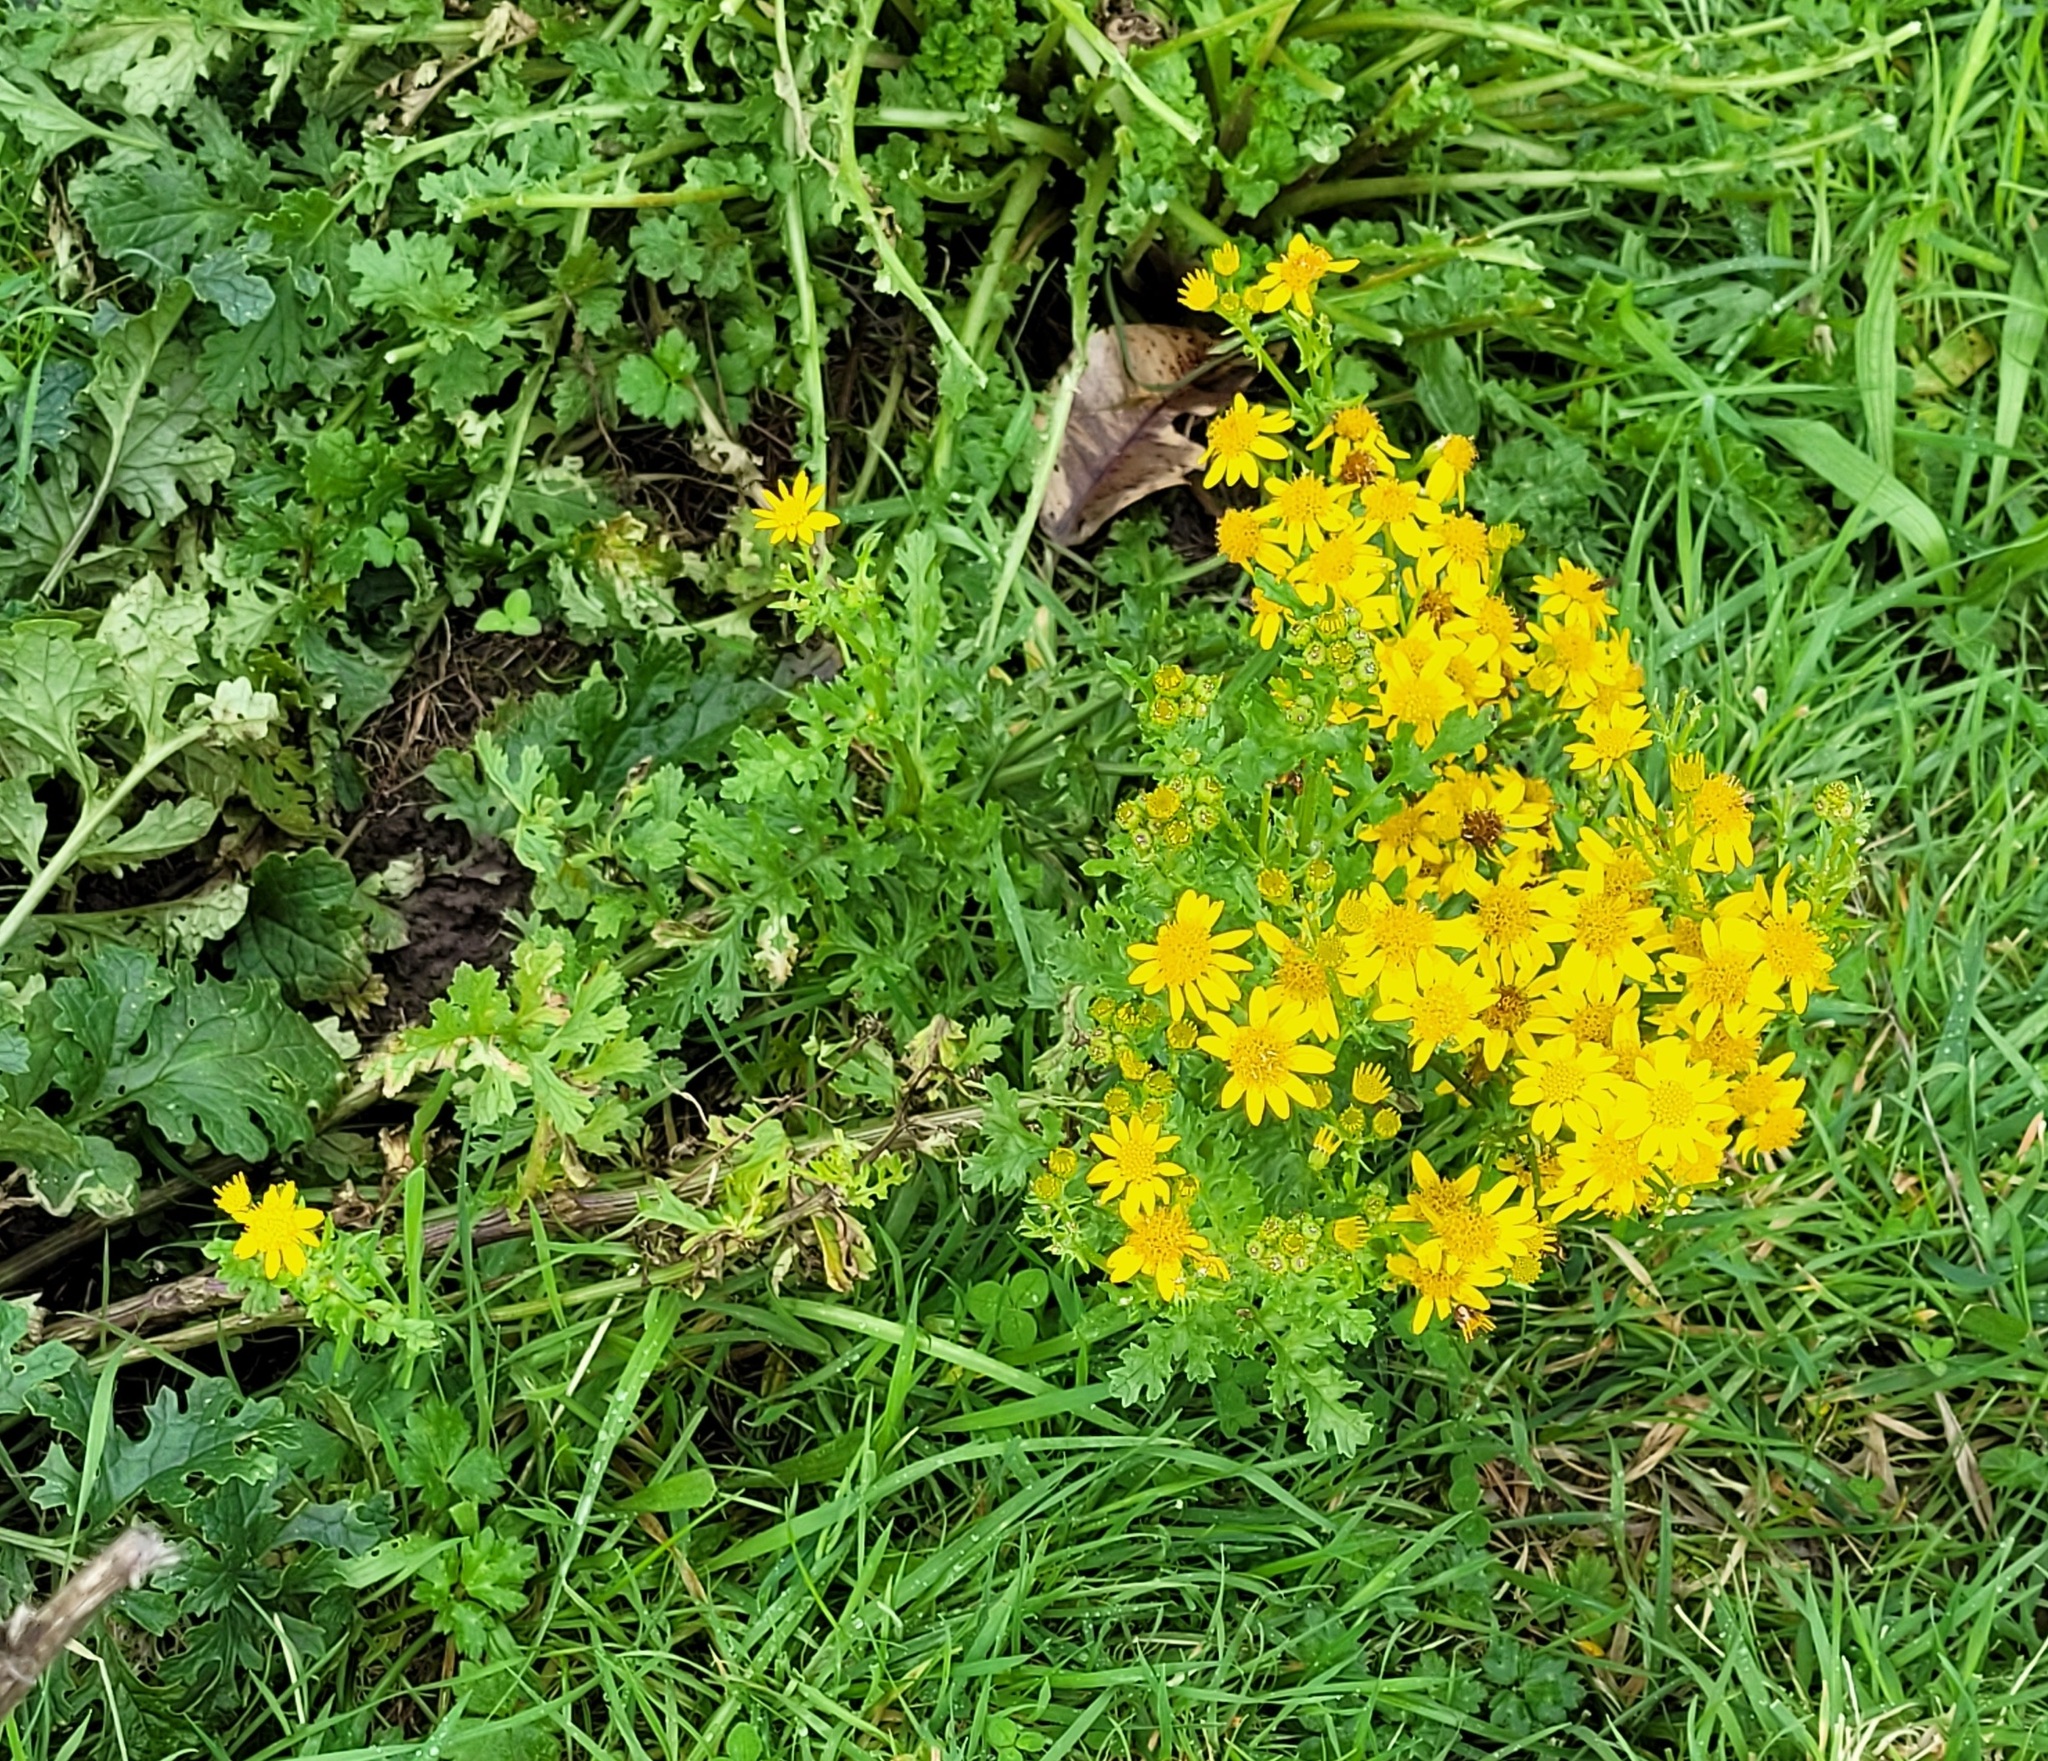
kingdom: Plantae
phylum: Tracheophyta
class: Magnoliopsida
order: Asterales
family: Asteraceae
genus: Jacobaea
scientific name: Jacobaea vulgaris
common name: Stinking willie
